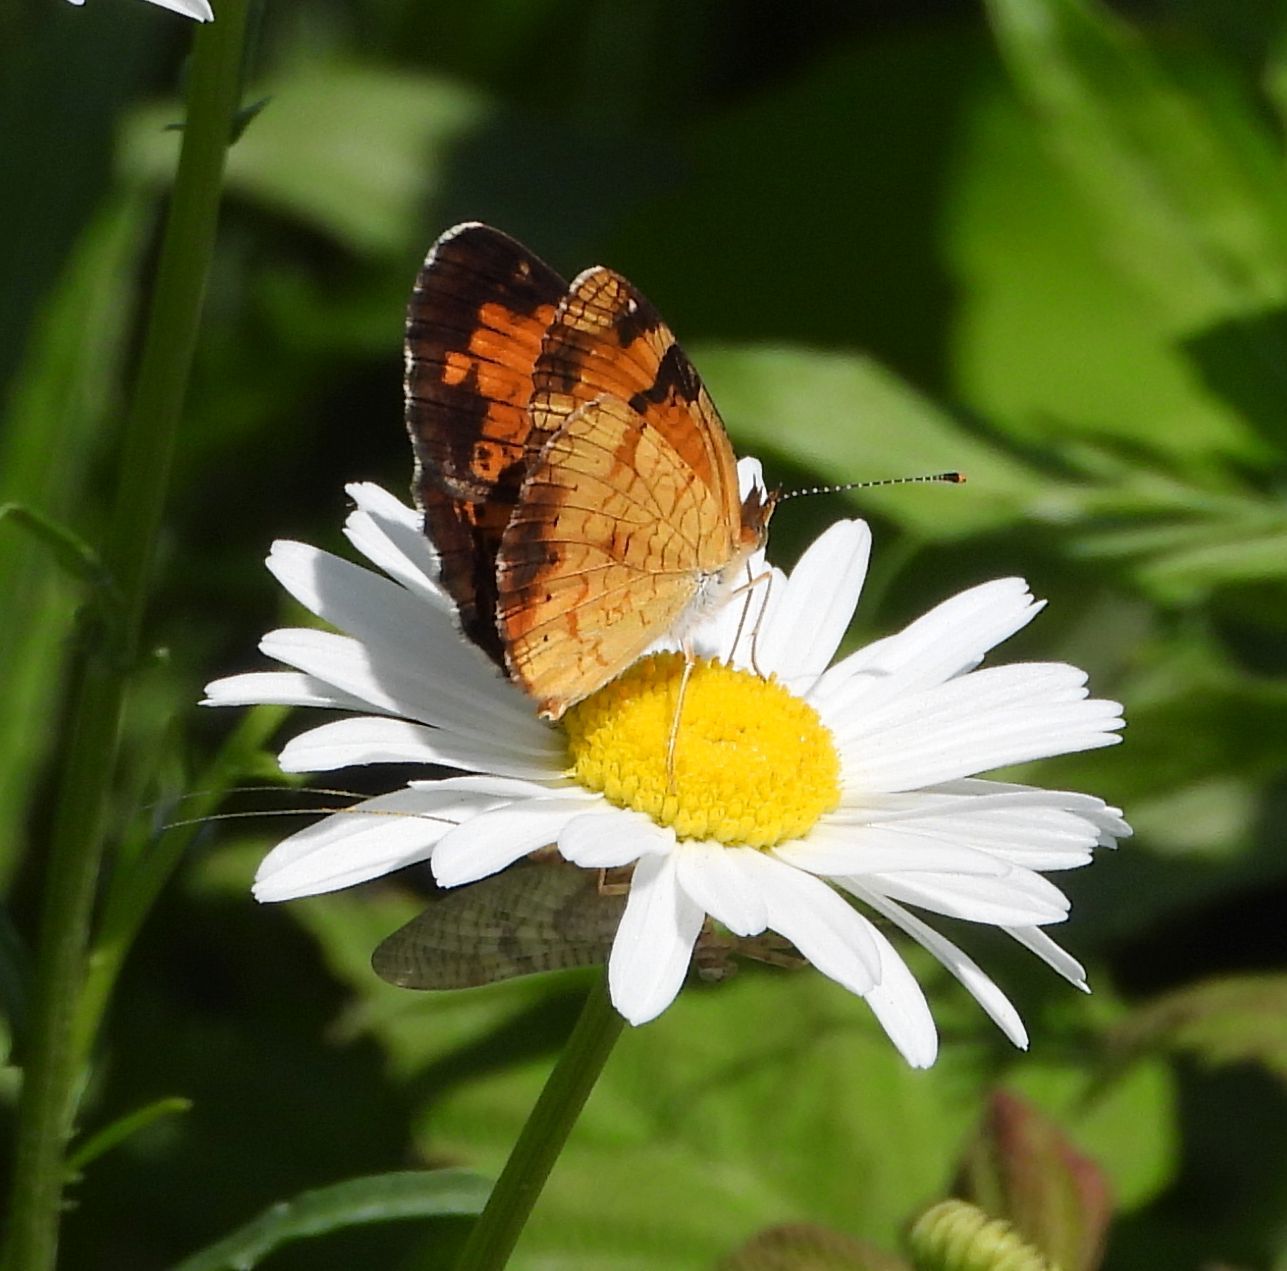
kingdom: Animalia
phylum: Arthropoda
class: Insecta
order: Lepidoptera
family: Nymphalidae
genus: Phyciodes
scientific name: Phyciodes tharos
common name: Pearl crescent
